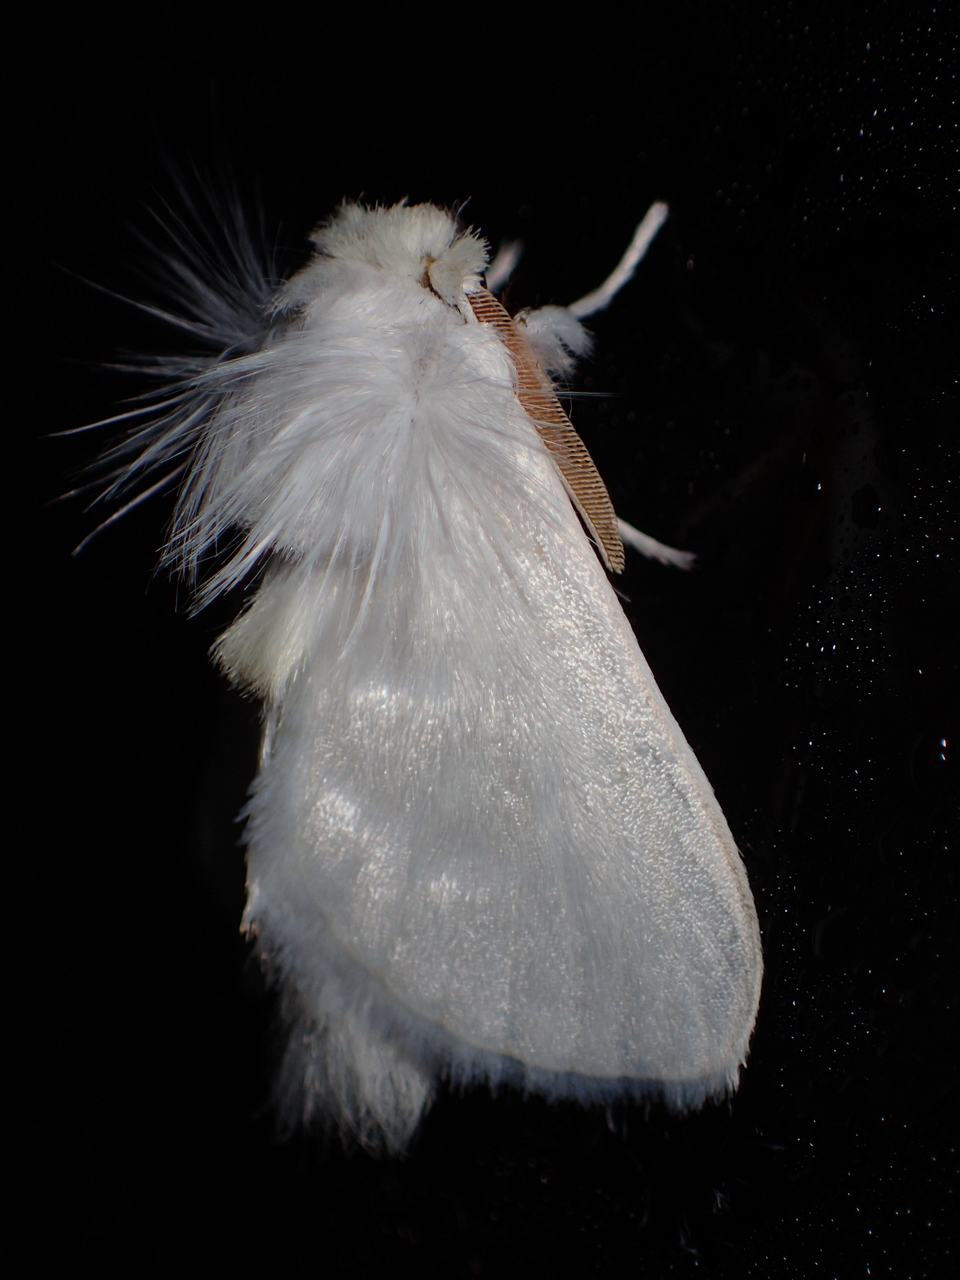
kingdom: Animalia
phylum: Arthropoda
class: Insecta
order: Lepidoptera
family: Megalopygidae
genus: Norape
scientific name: Norape cretata
